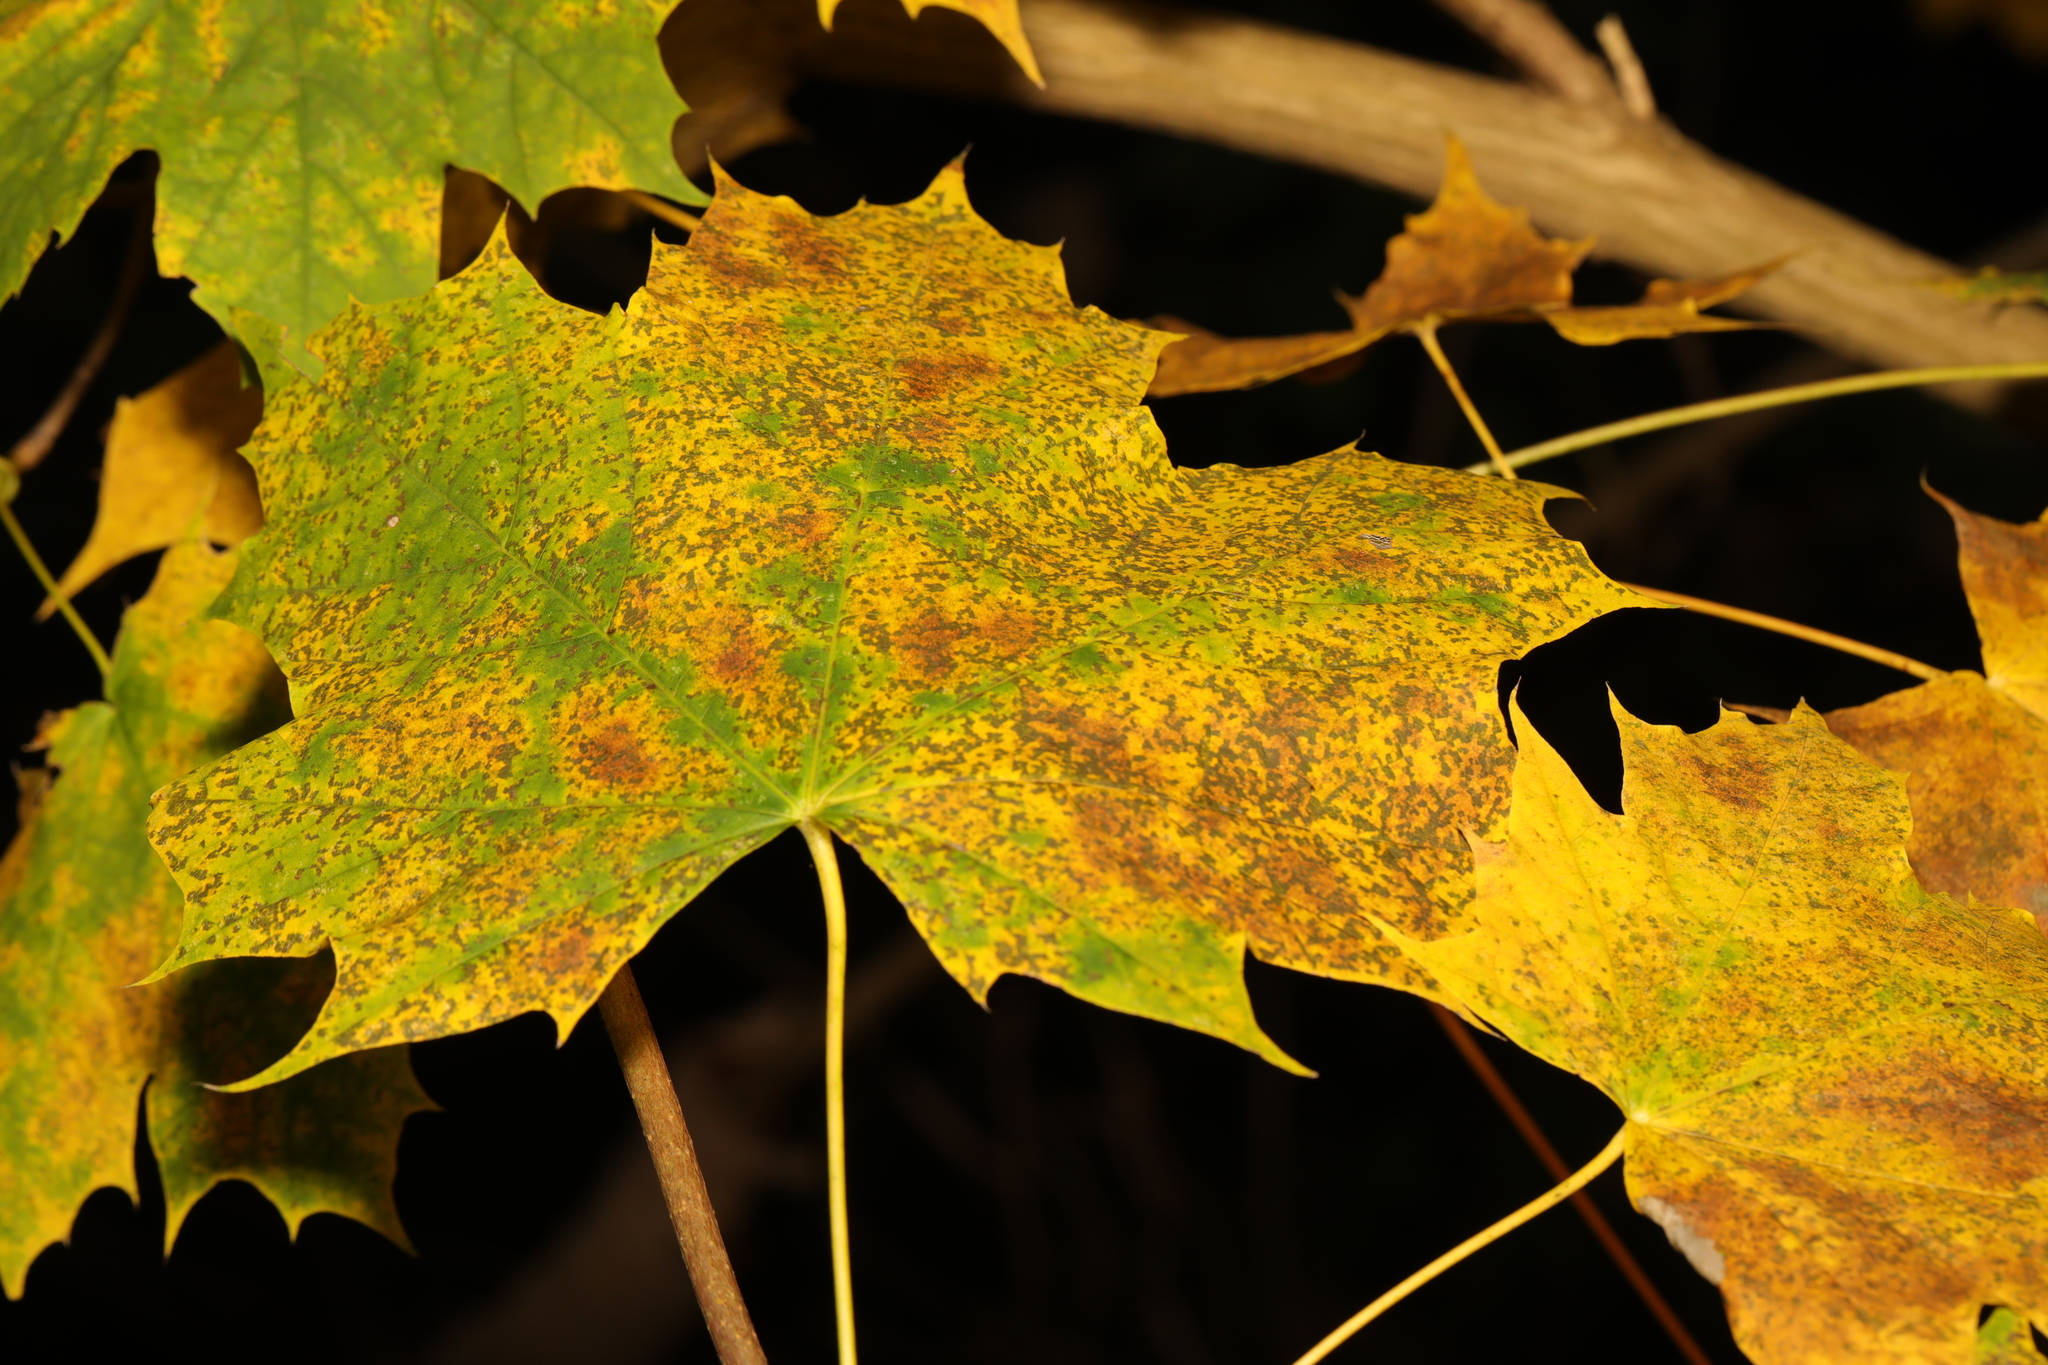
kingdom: Plantae
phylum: Tracheophyta
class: Magnoliopsida
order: Sapindales
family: Sapindaceae
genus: Acer
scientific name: Acer platanoides
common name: Norway maple
